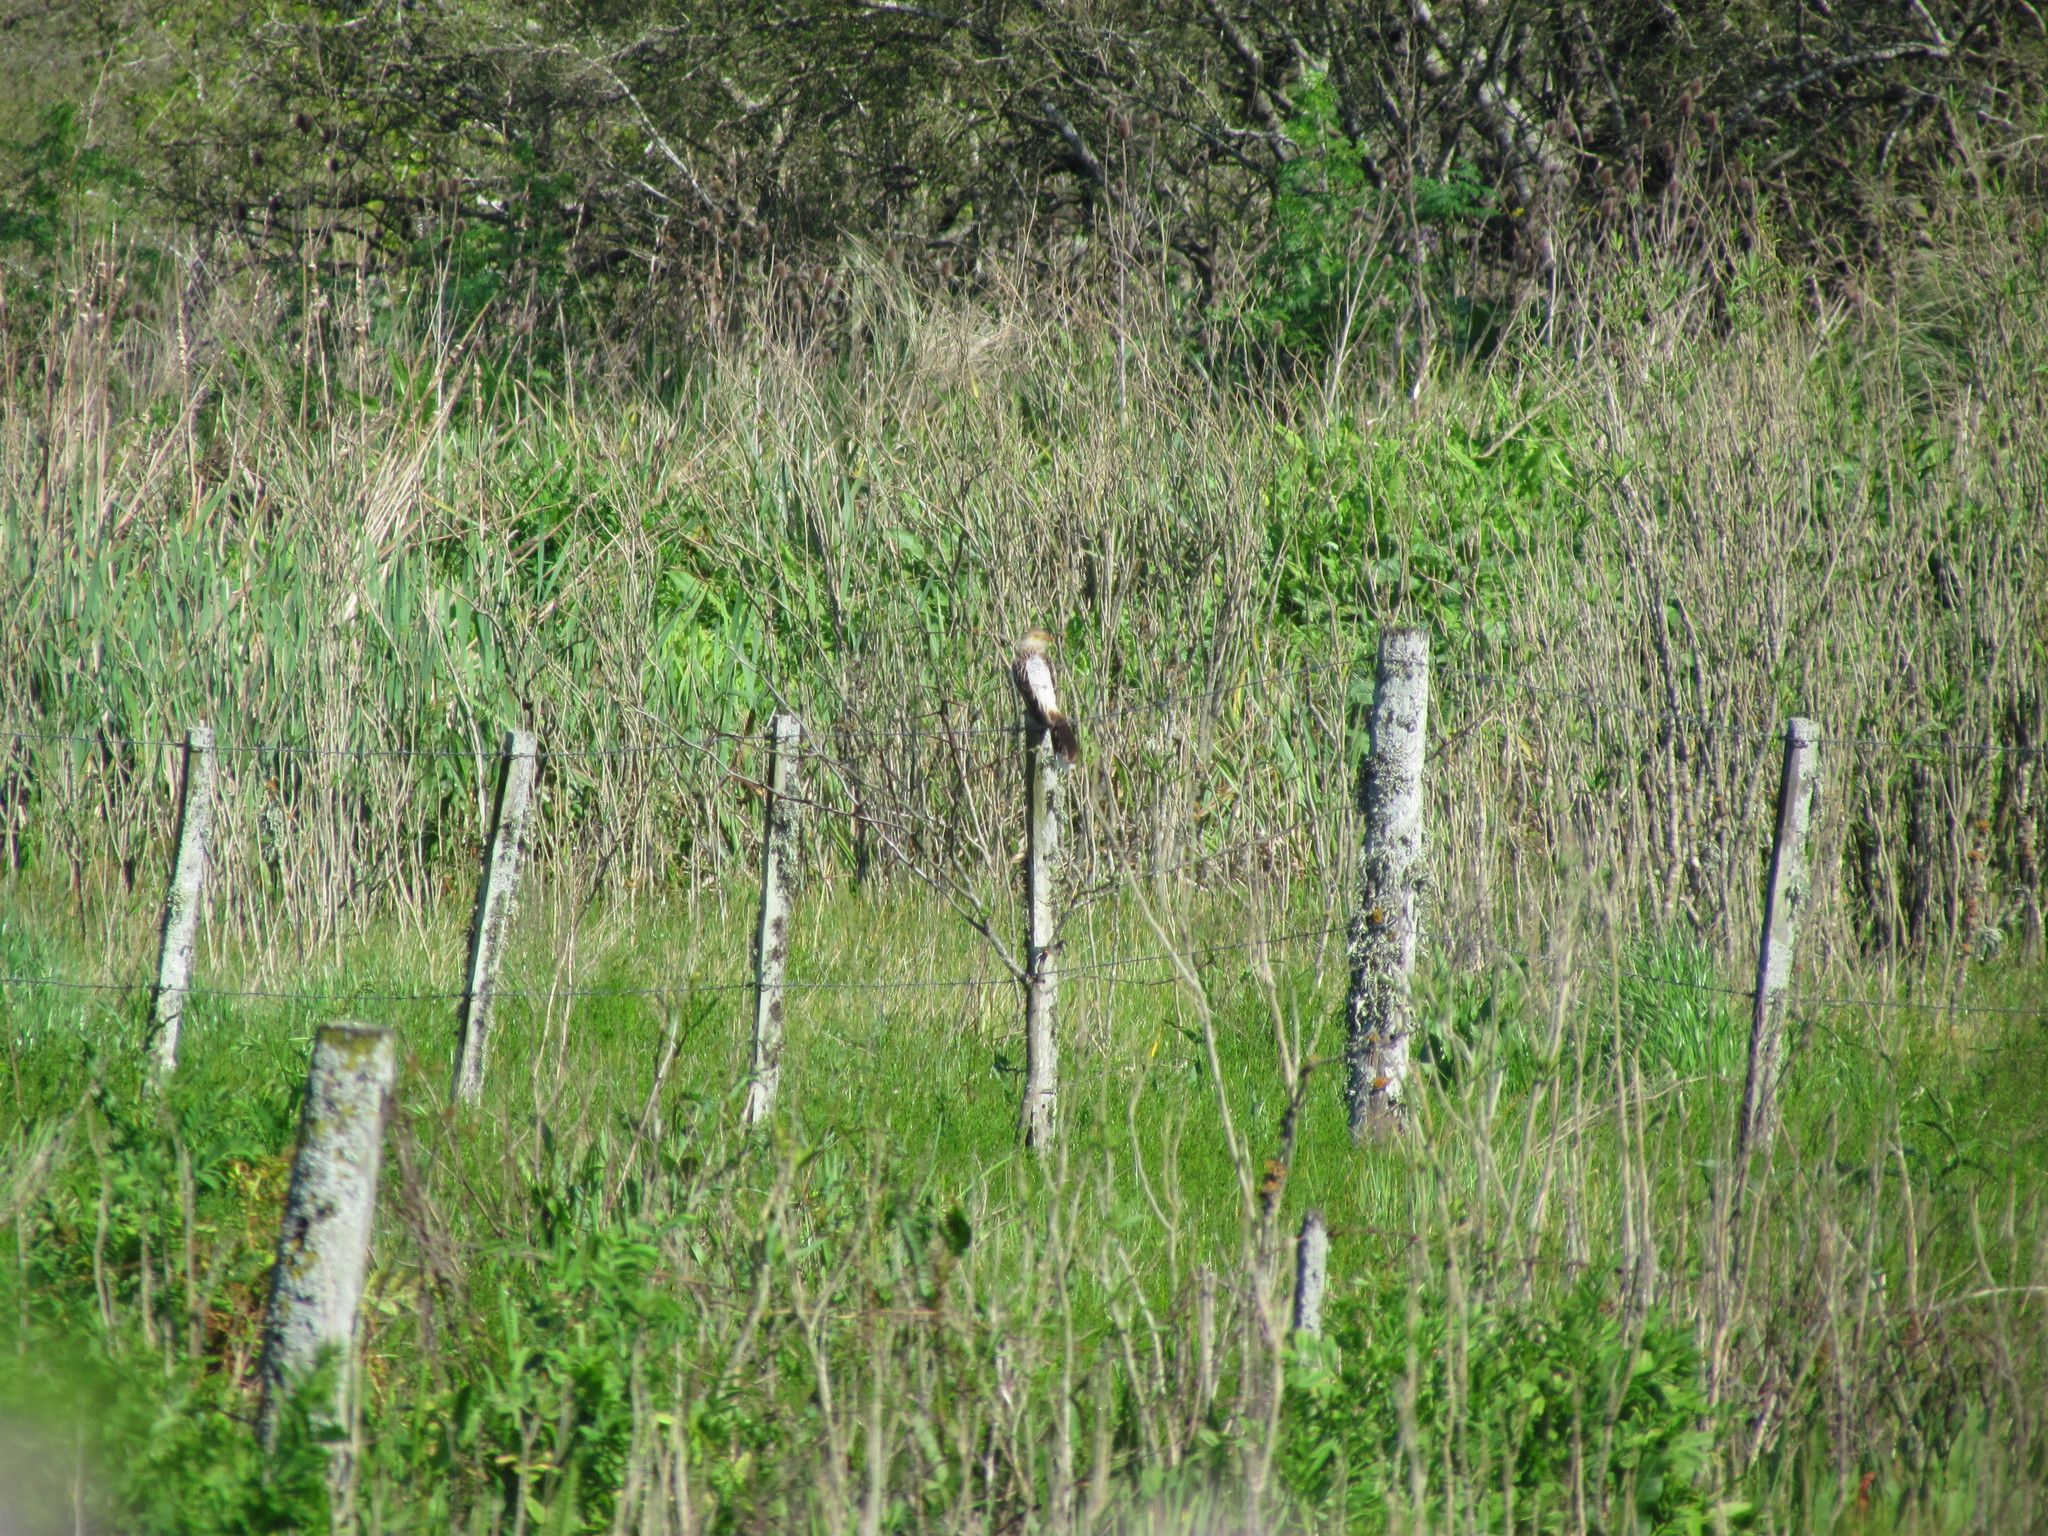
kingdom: Animalia
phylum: Chordata
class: Aves
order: Cuculiformes
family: Cuculidae
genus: Guira
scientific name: Guira guira
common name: Guira cuckoo
